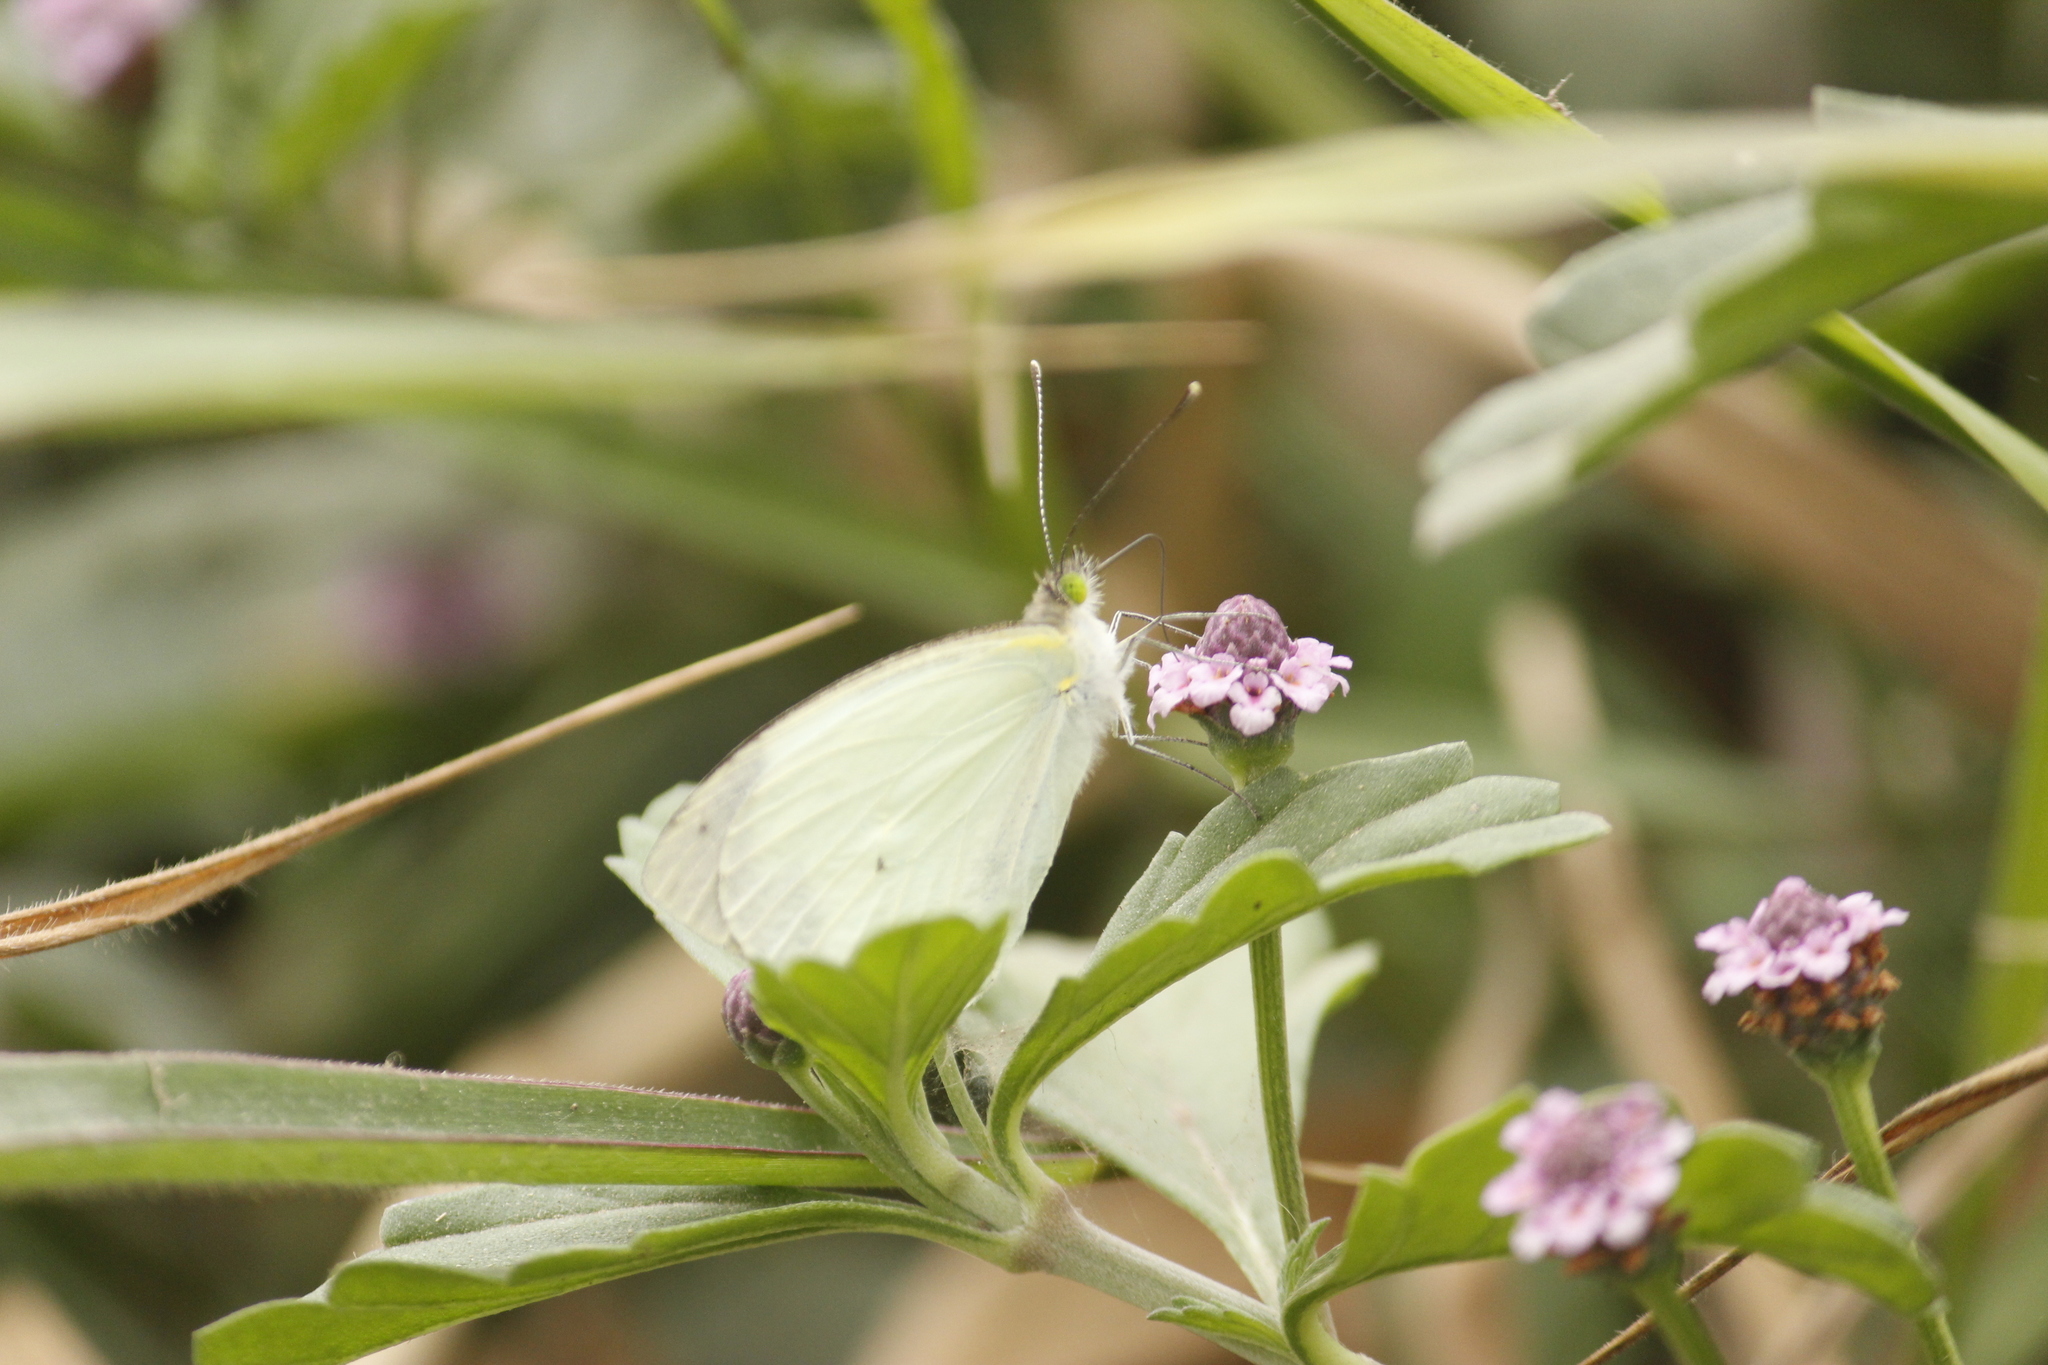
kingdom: Animalia
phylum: Arthropoda
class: Insecta
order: Lepidoptera
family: Pieridae
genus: Leptophobia
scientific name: Leptophobia aripa
